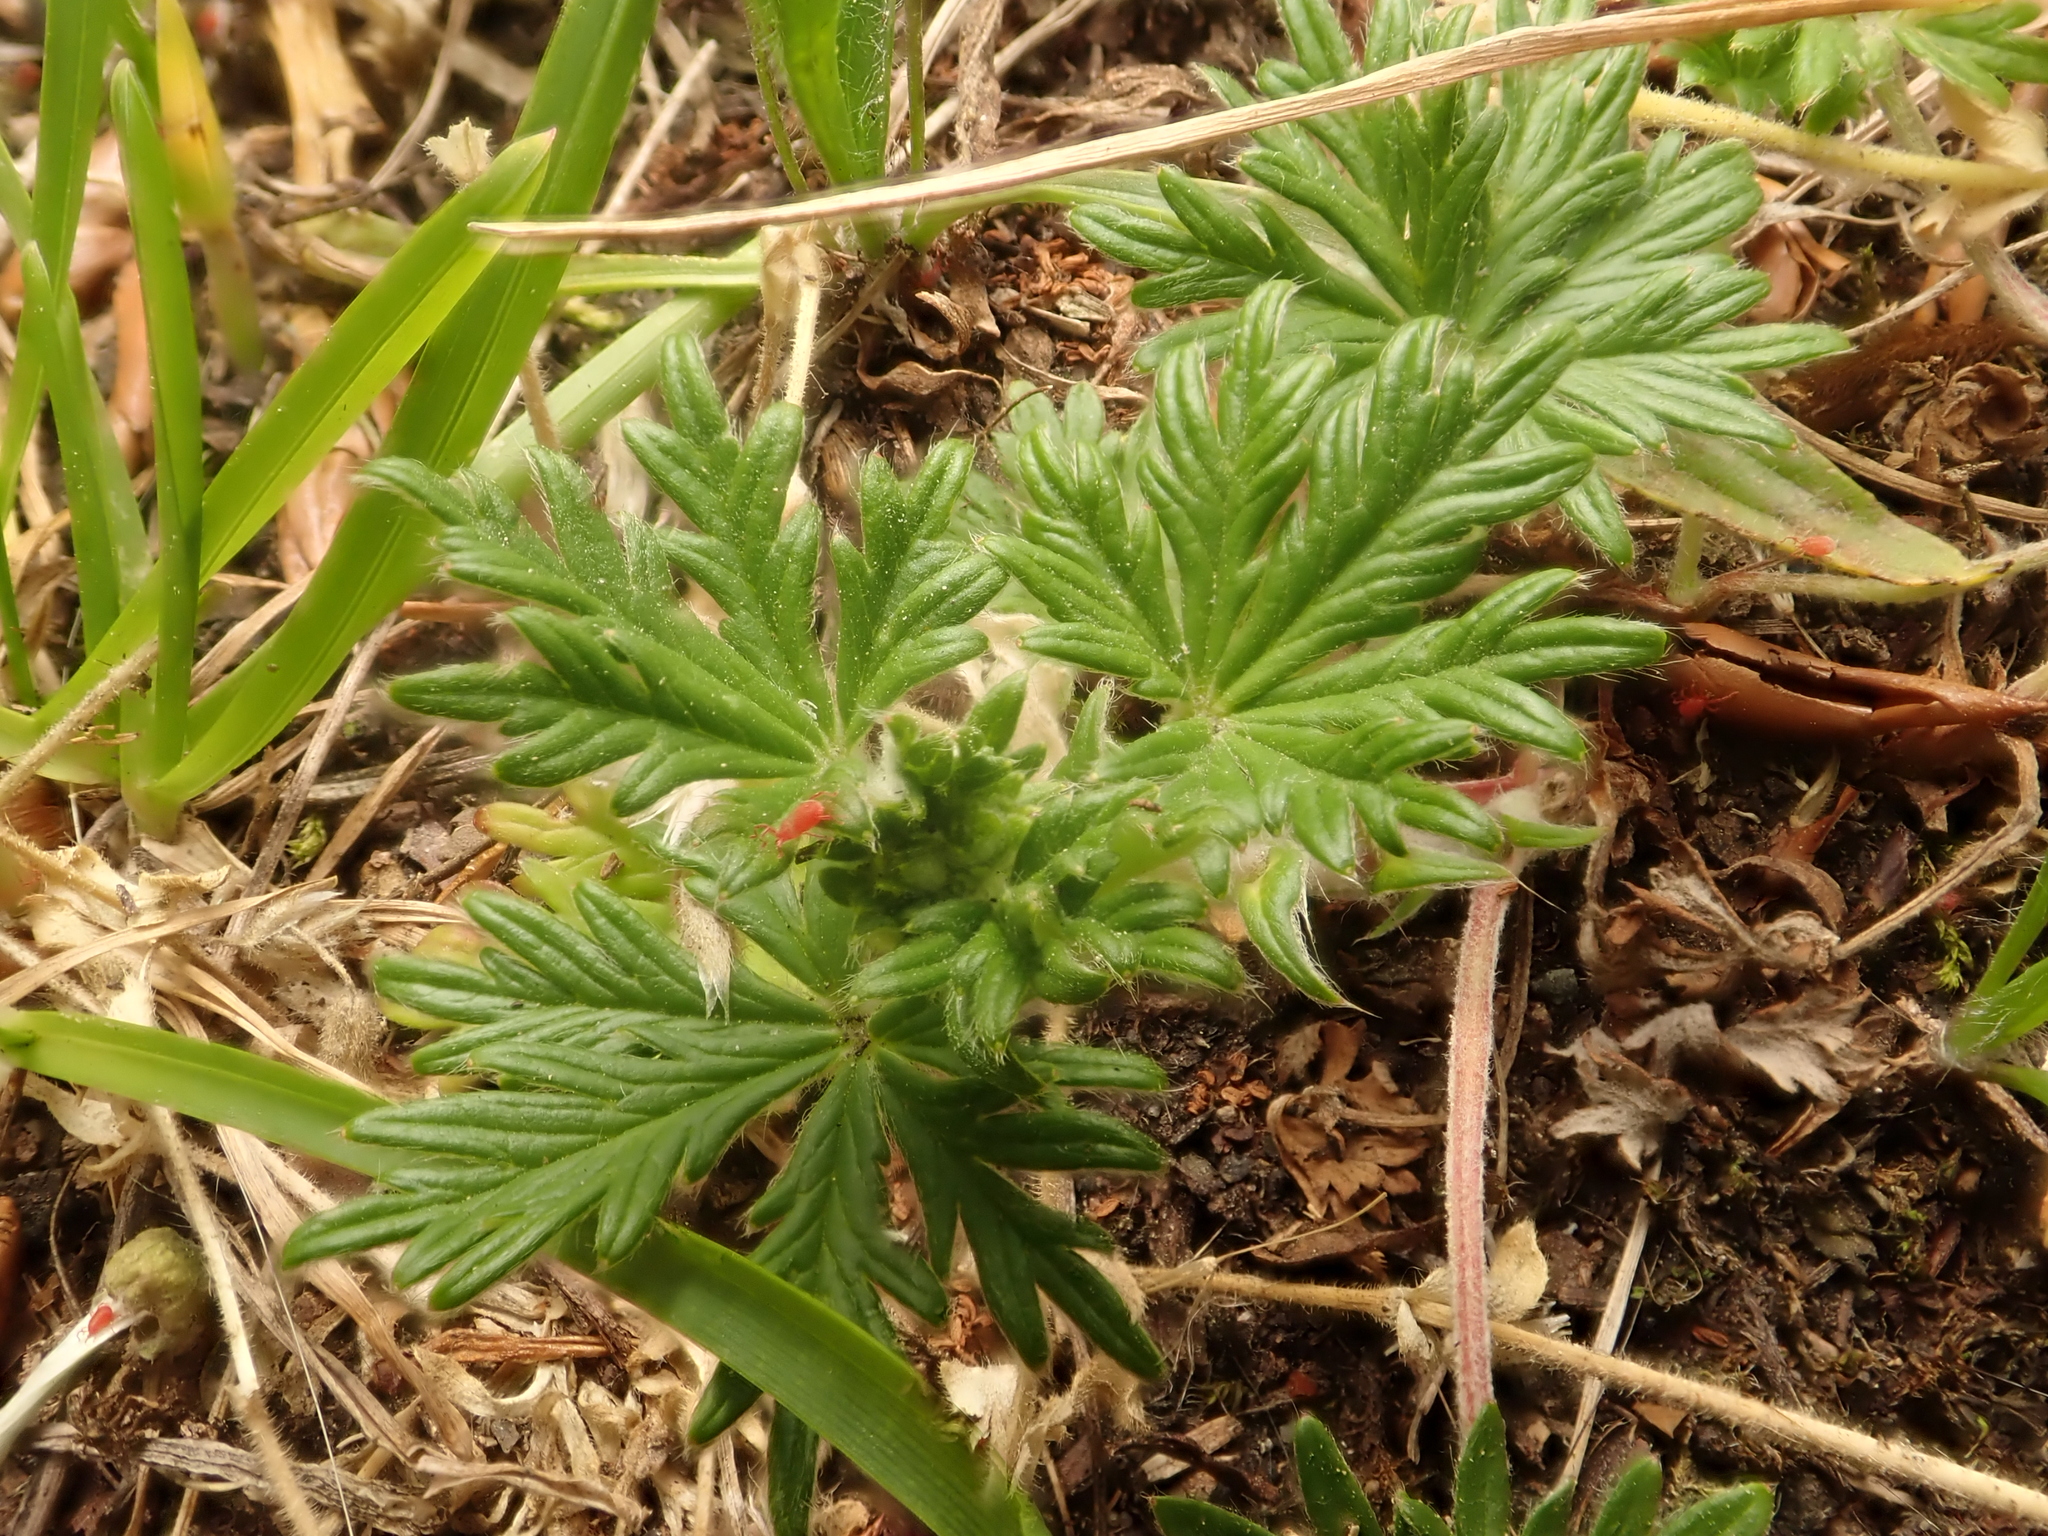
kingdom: Plantae
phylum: Tracheophyta
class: Magnoliopsida
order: Rosales
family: Rosaceae
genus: Potentilla
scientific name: Potentilla argentea
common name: Hoary cinquefoil
